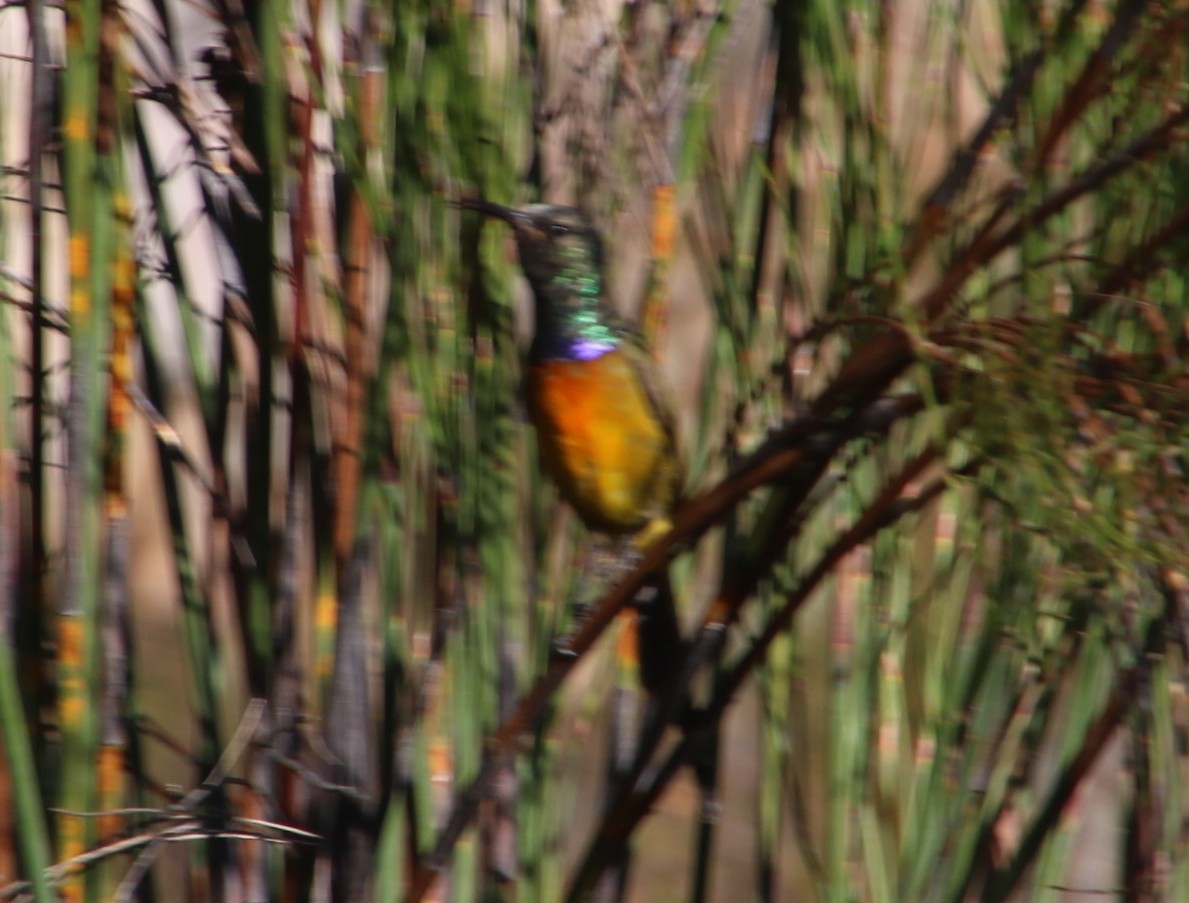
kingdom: Animalia
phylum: Chordata
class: Aves
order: Passeriformes
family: Nectariniidae
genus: Anthobaphes
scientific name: Anthobaphes violacea
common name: Orange-breasted sunbird
